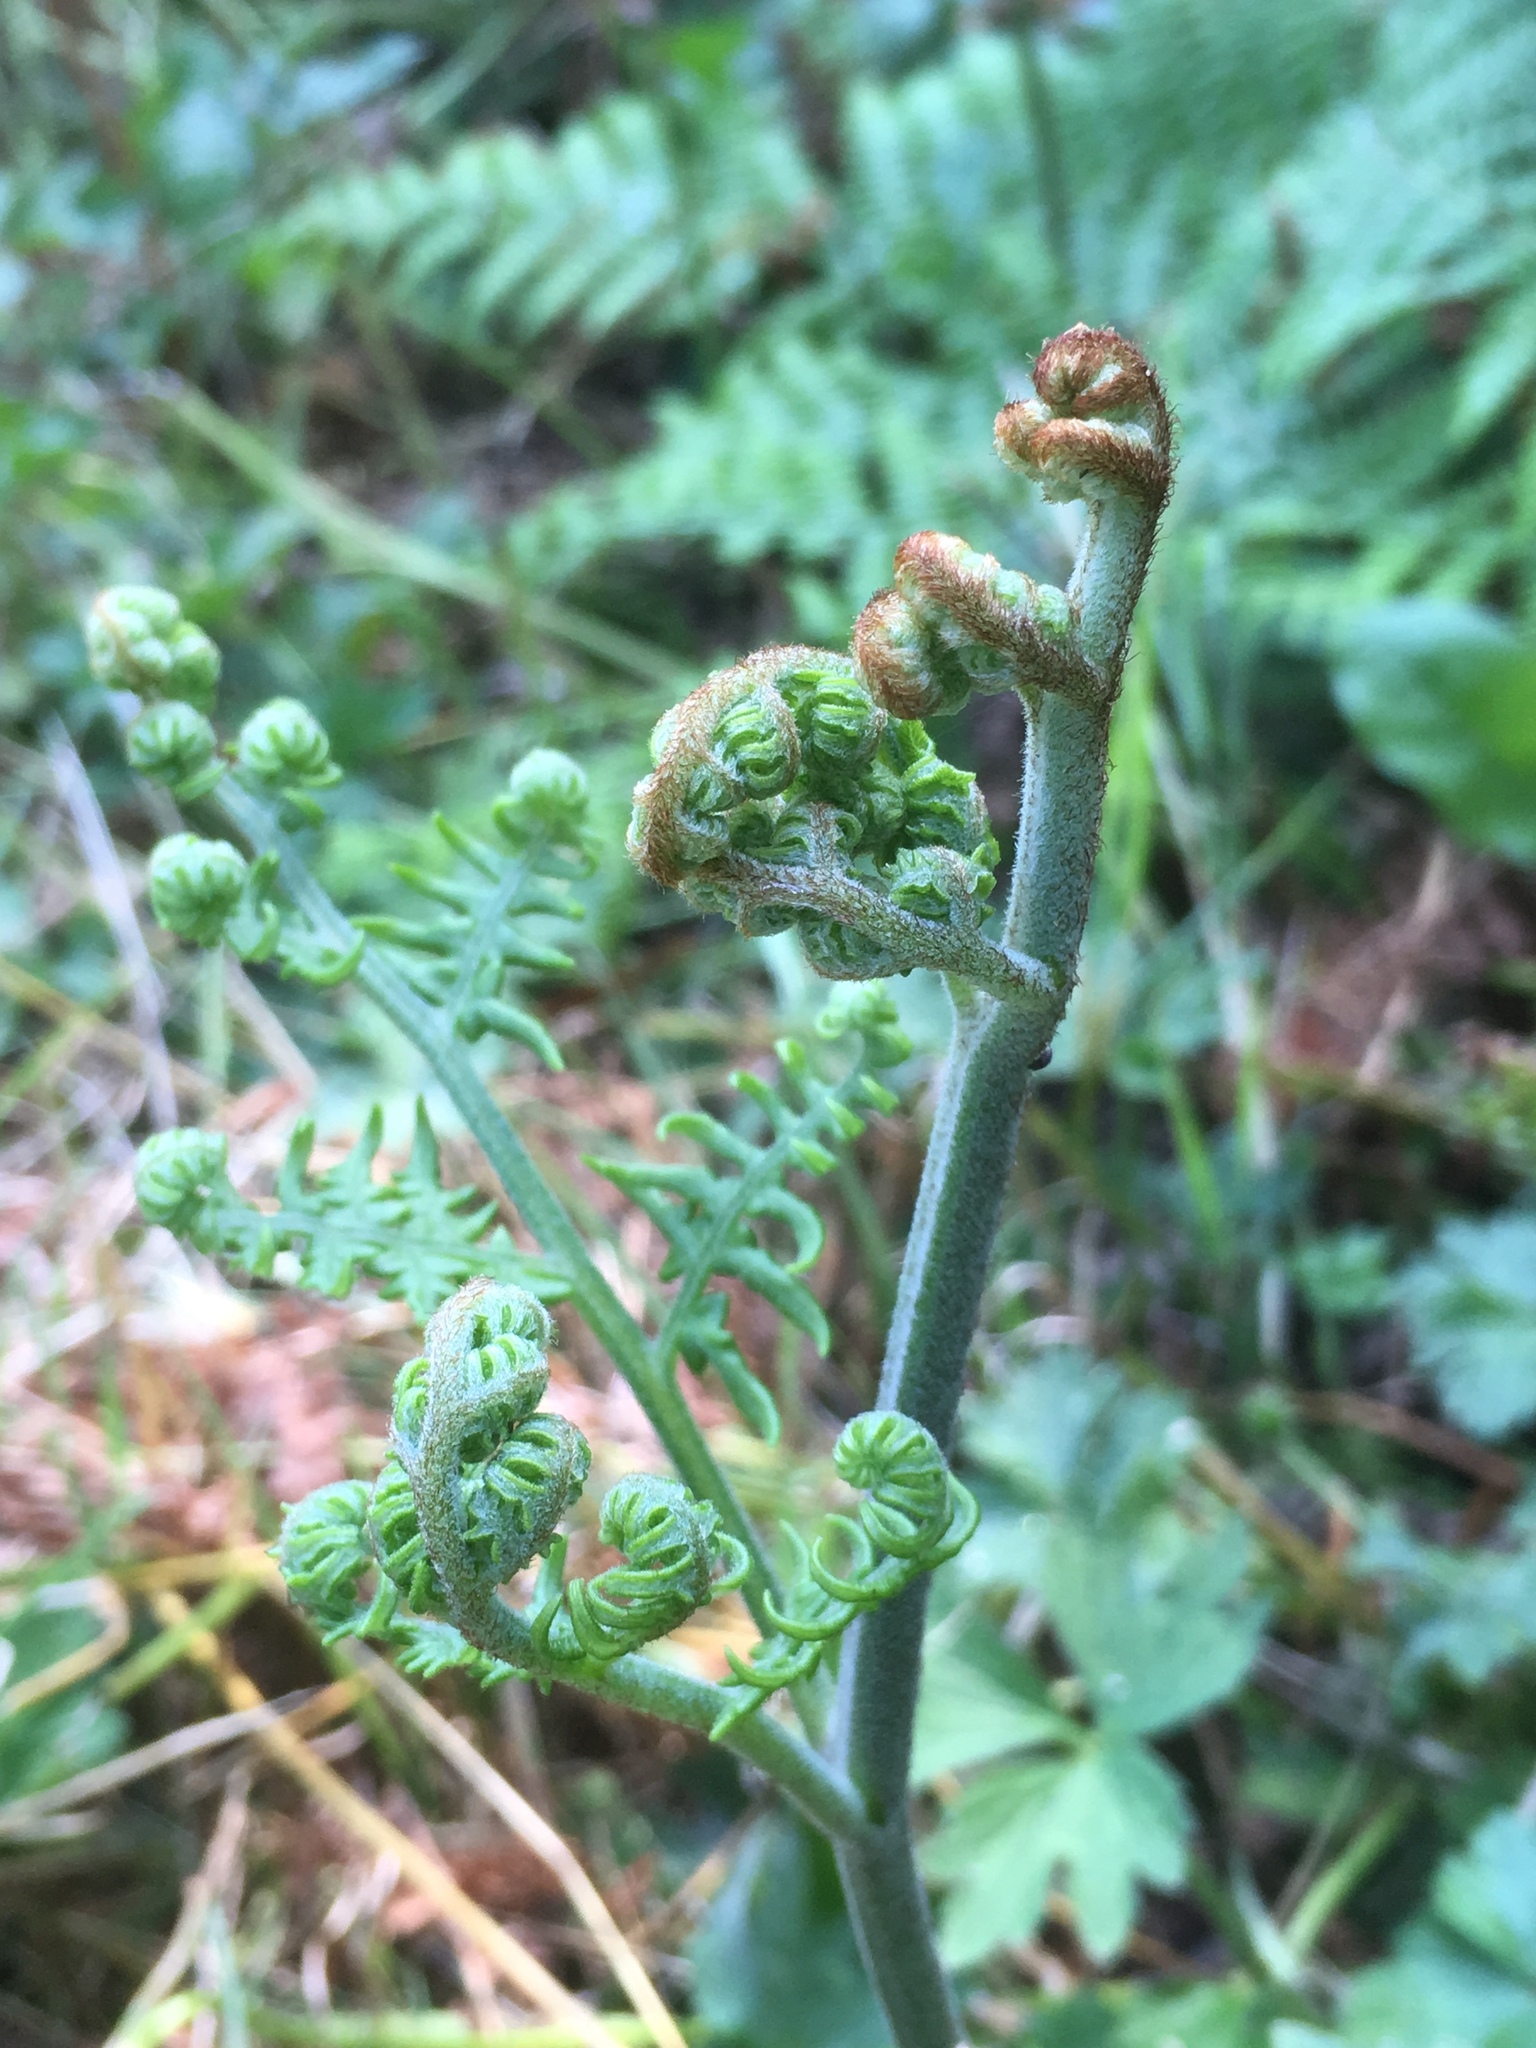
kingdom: Plantae
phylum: Tracheophyta
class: Polypodiopsida
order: Polypodiales
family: Dennstaedtiaceae
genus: Pteridium
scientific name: Pteridium aquilinum
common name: Bracken
